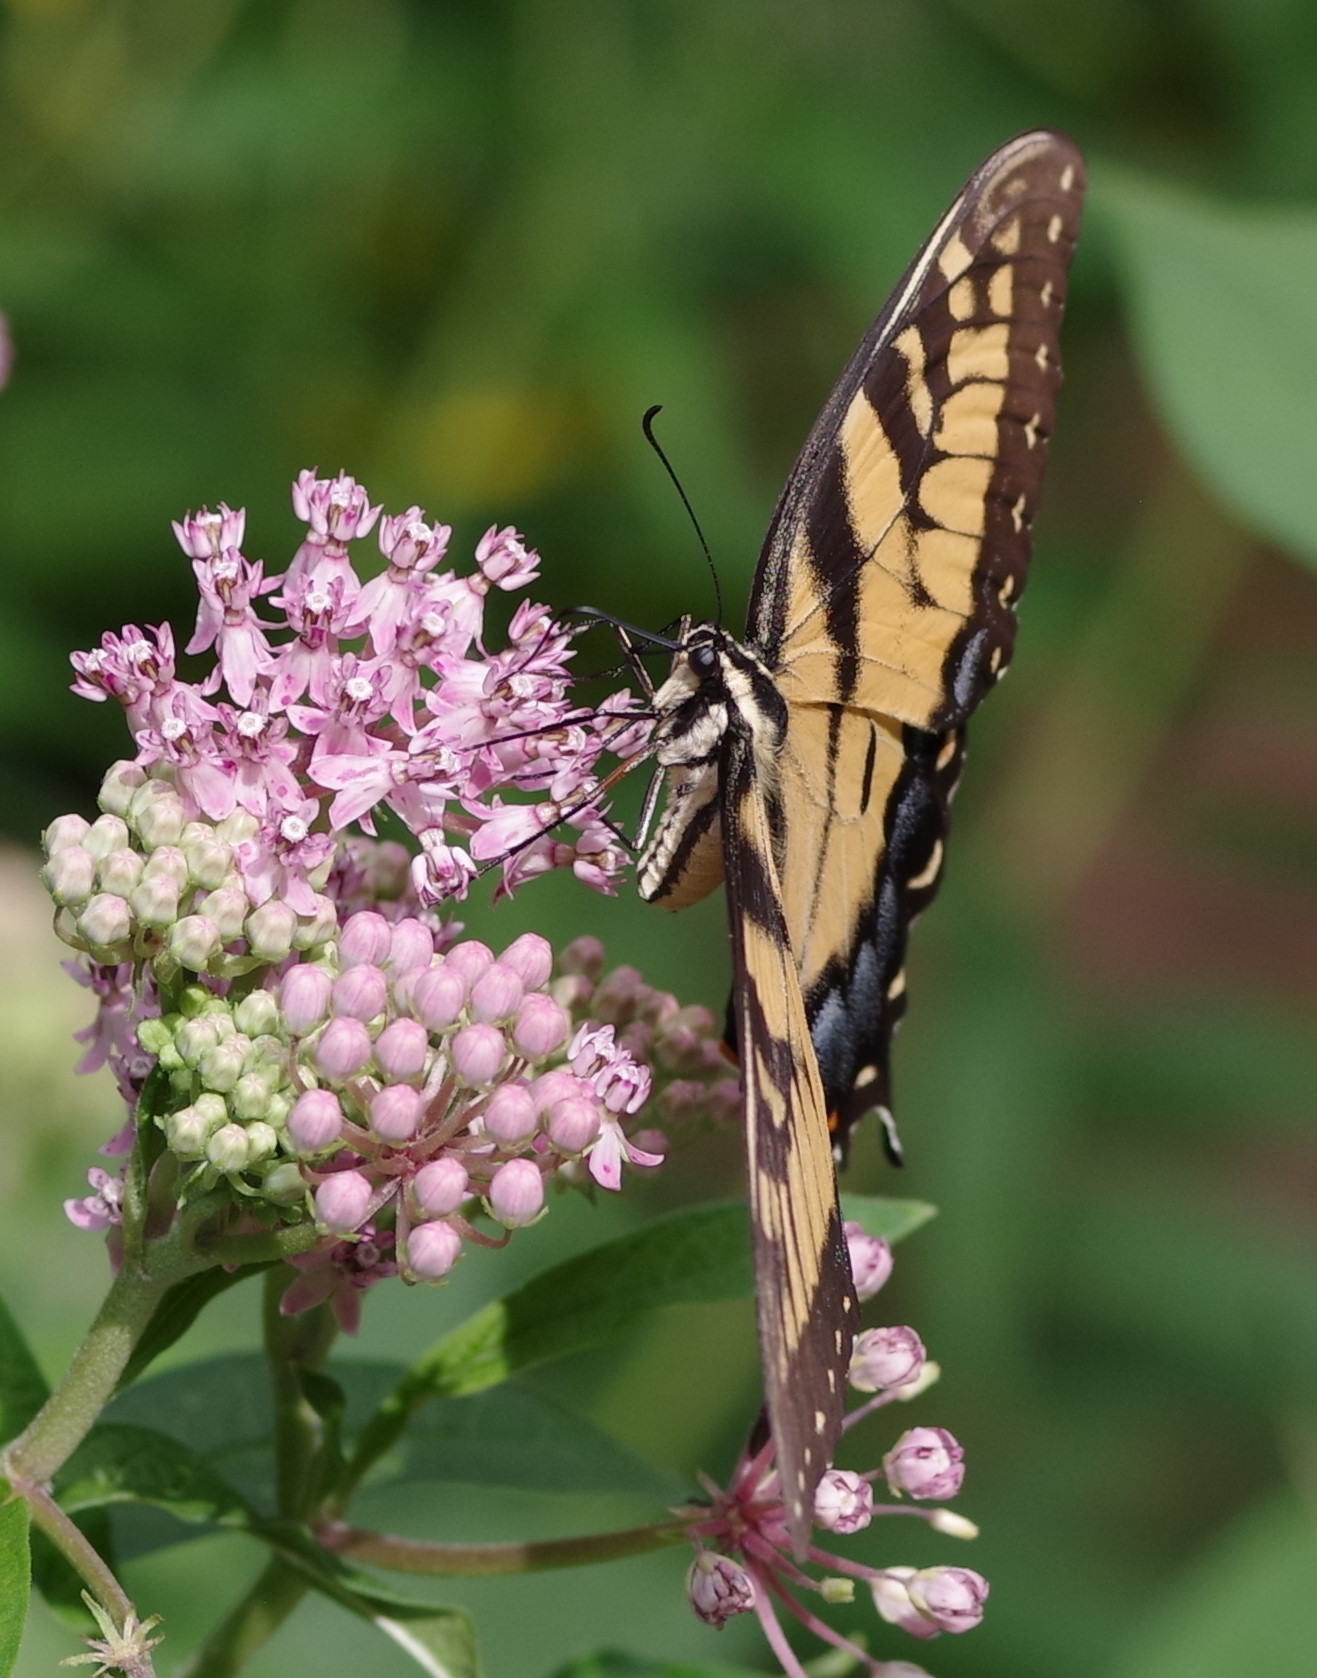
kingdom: Animalia
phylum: Arthropoda
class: Insecta
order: Lepidoptera
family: Papilionidae
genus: Papilio
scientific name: Papilio glaucus
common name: Tiger swallowtail
